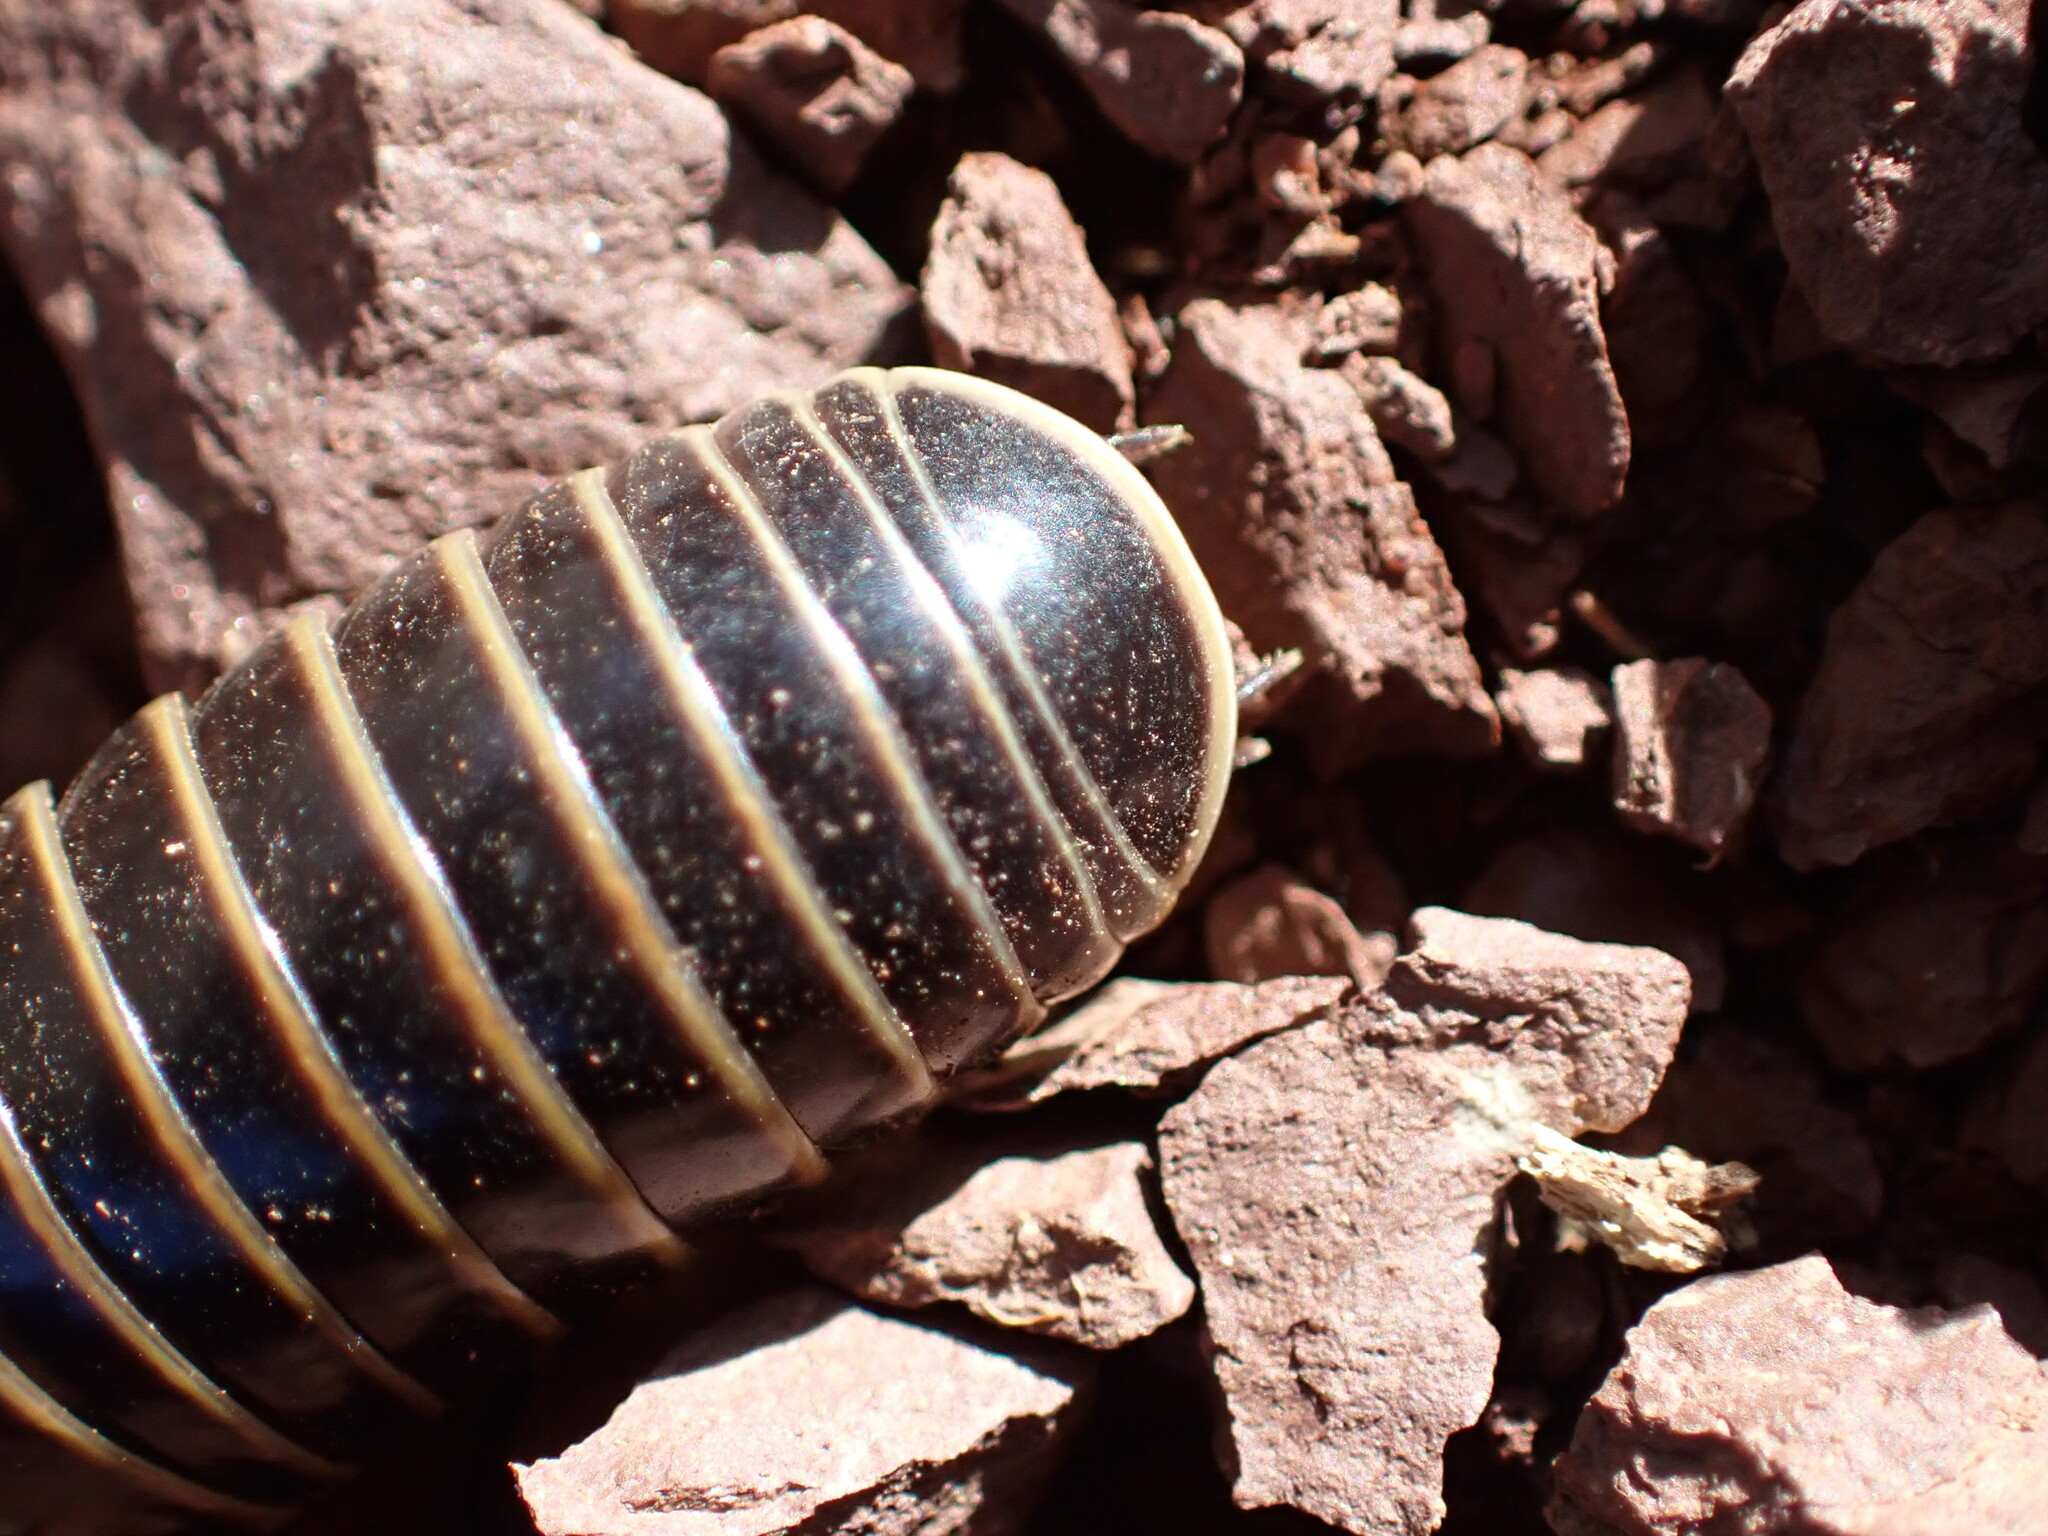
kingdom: Animalia
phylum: Arthropoda
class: Diplopoda
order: Glomerida
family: Glomeridae
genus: Glomeris
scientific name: Glomeris marginata
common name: Bordered pill millipede
